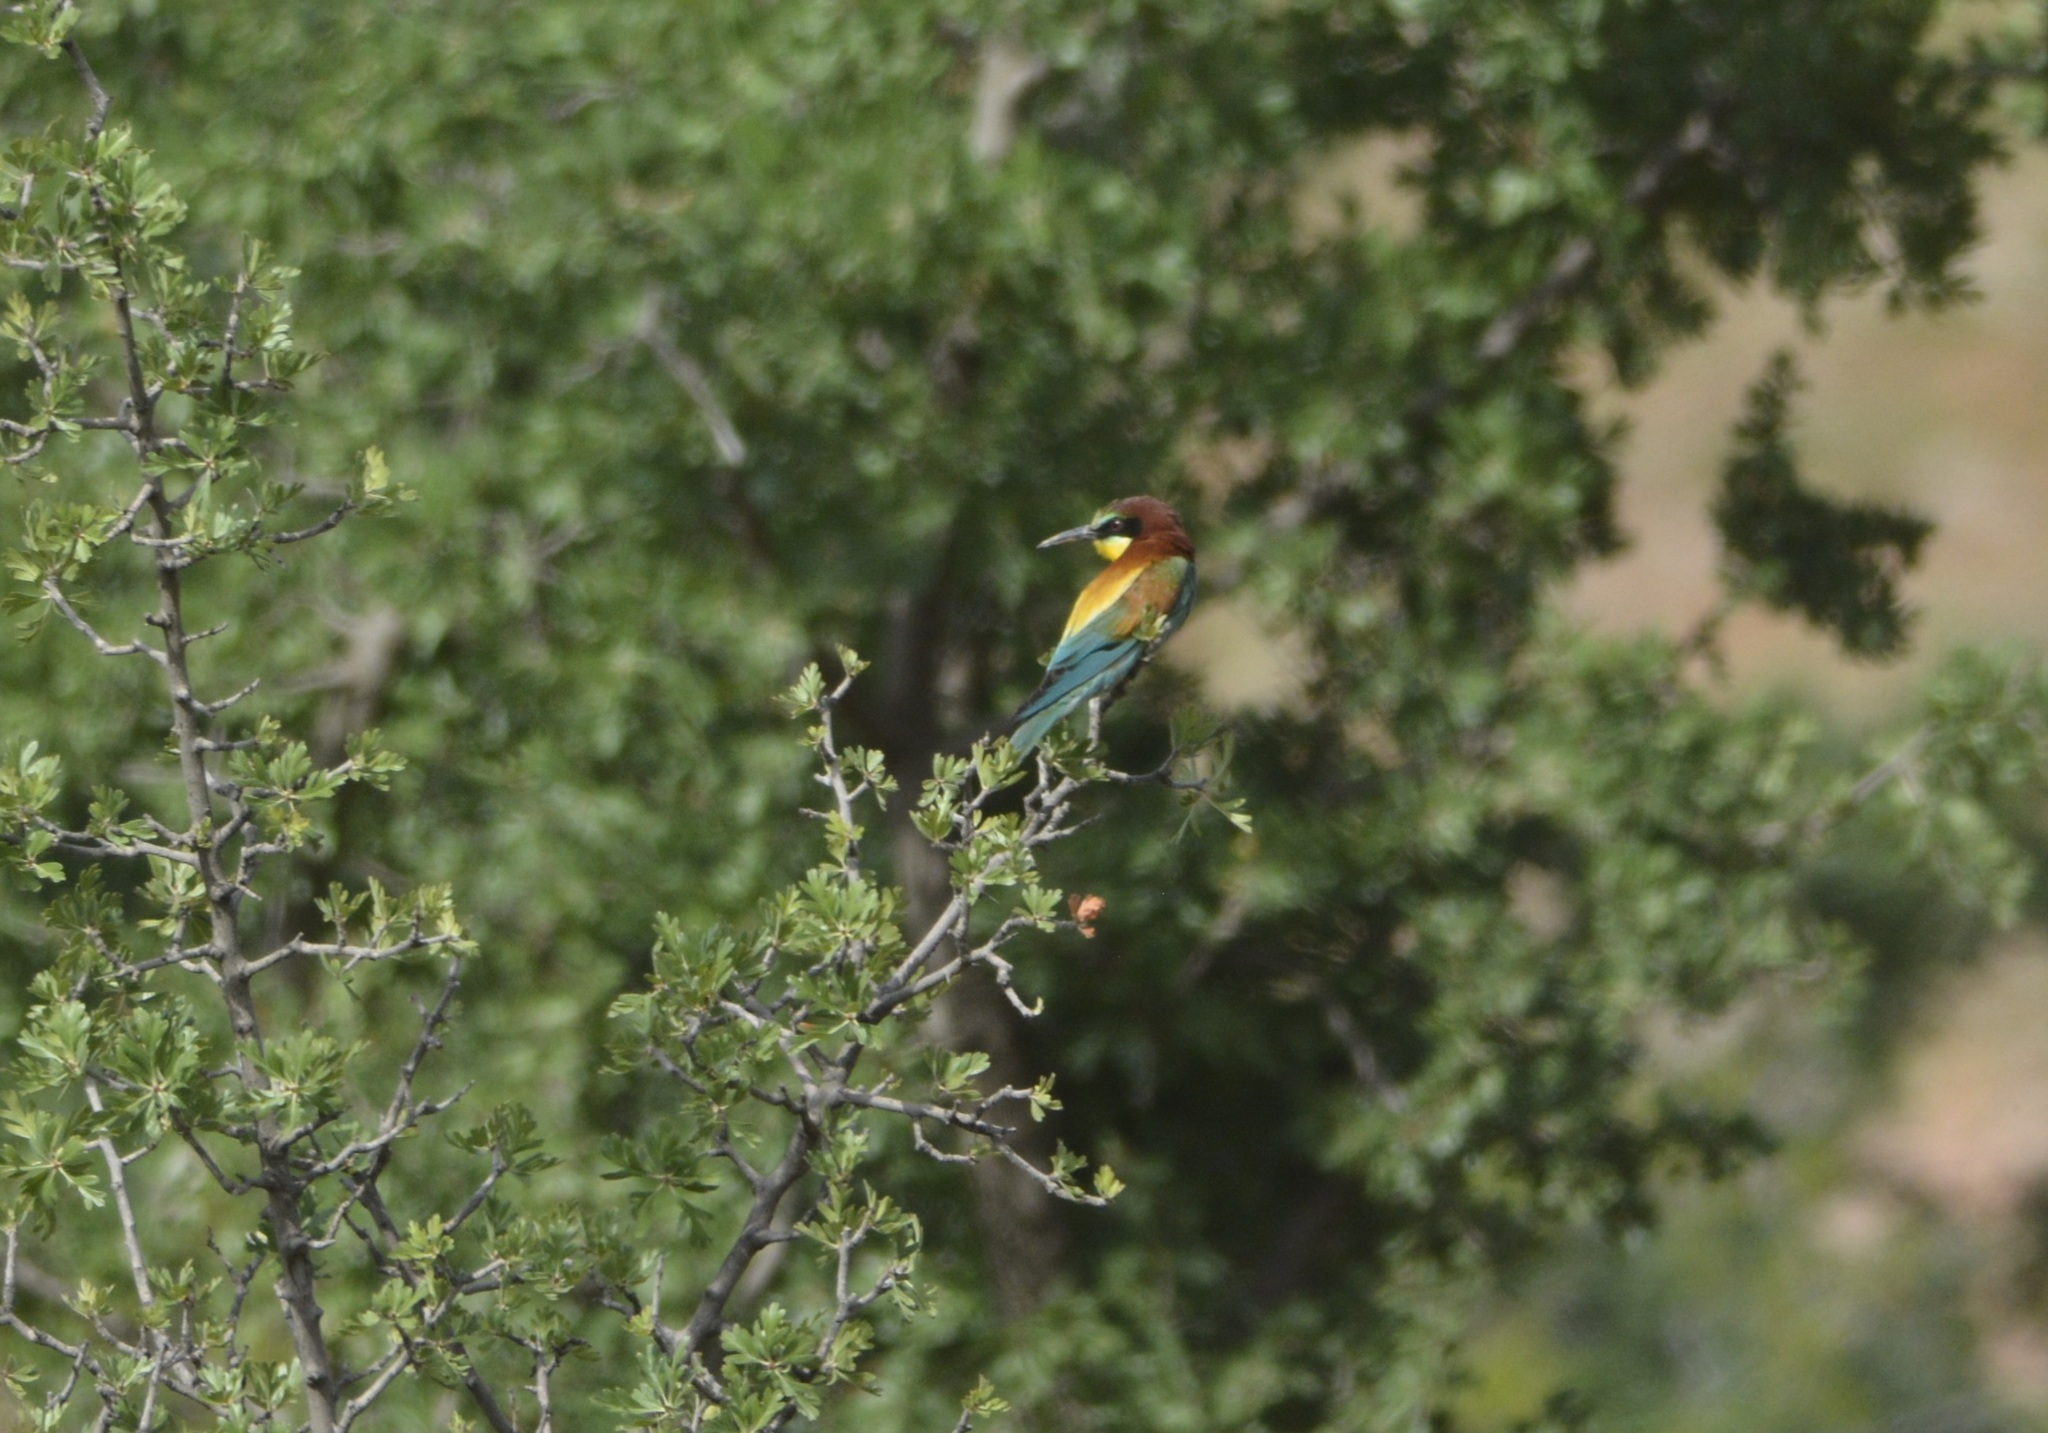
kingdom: Animalia
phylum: Chordata
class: Aves
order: Coraciiformes
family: Meropidae
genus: Merops
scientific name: Merops apiaster
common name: European bee-eater
